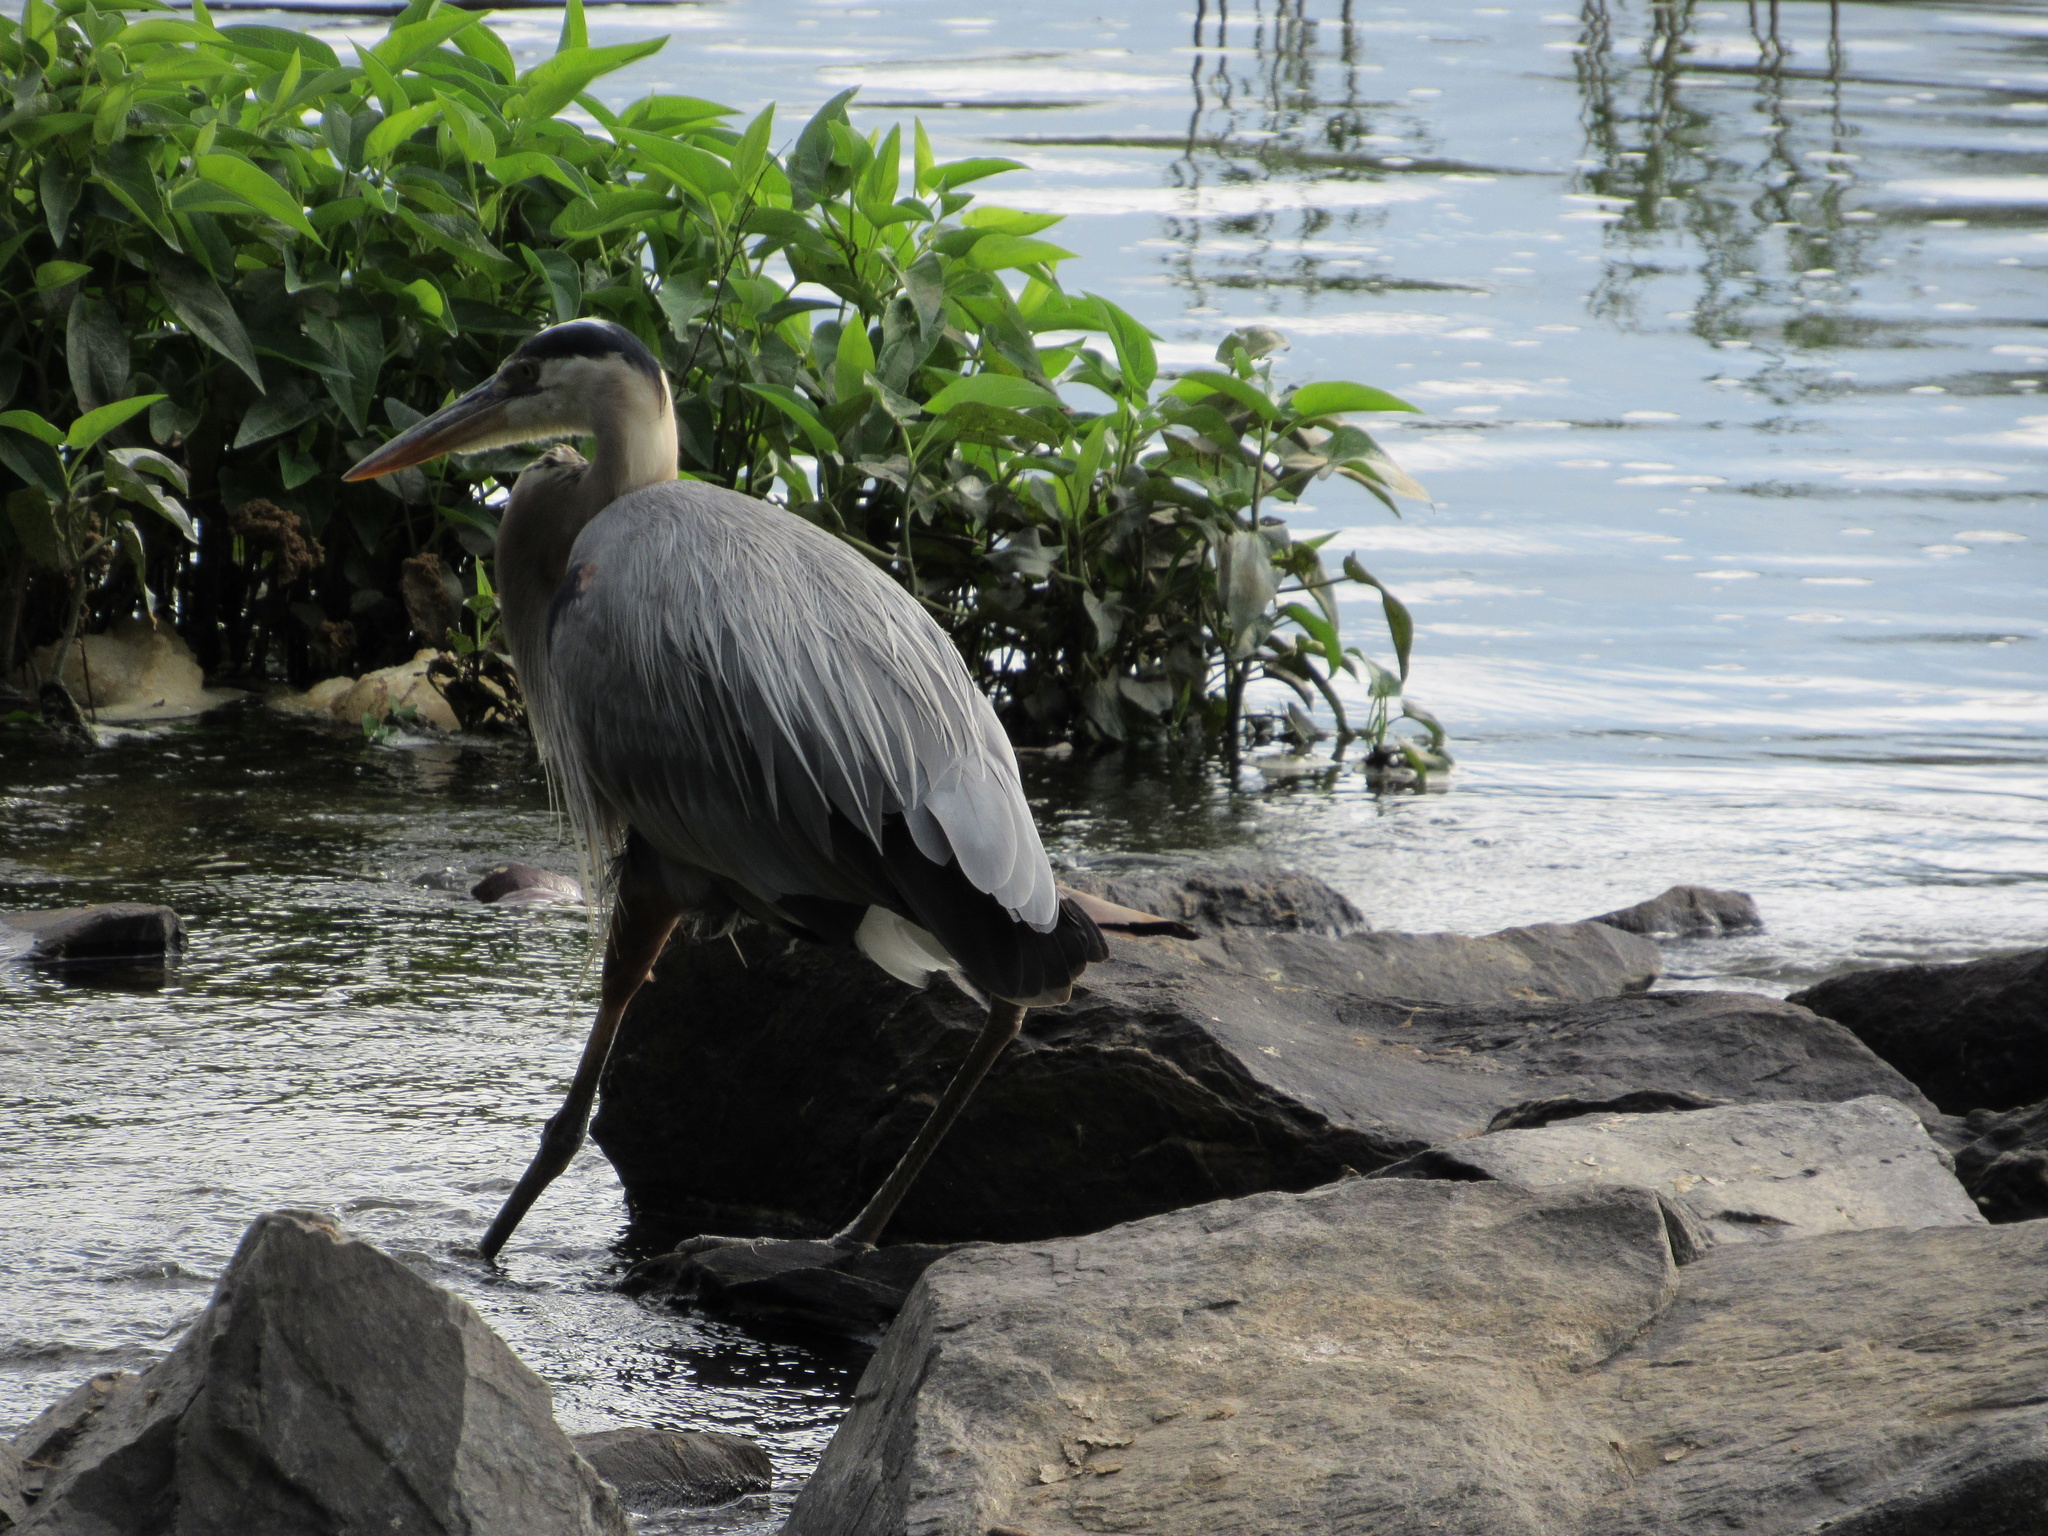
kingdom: Animalia
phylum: Chordata
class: Aves
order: Pelecaniformes
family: Ardeidae
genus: Ardea
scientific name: Ardea herodias
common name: Great blue heron
